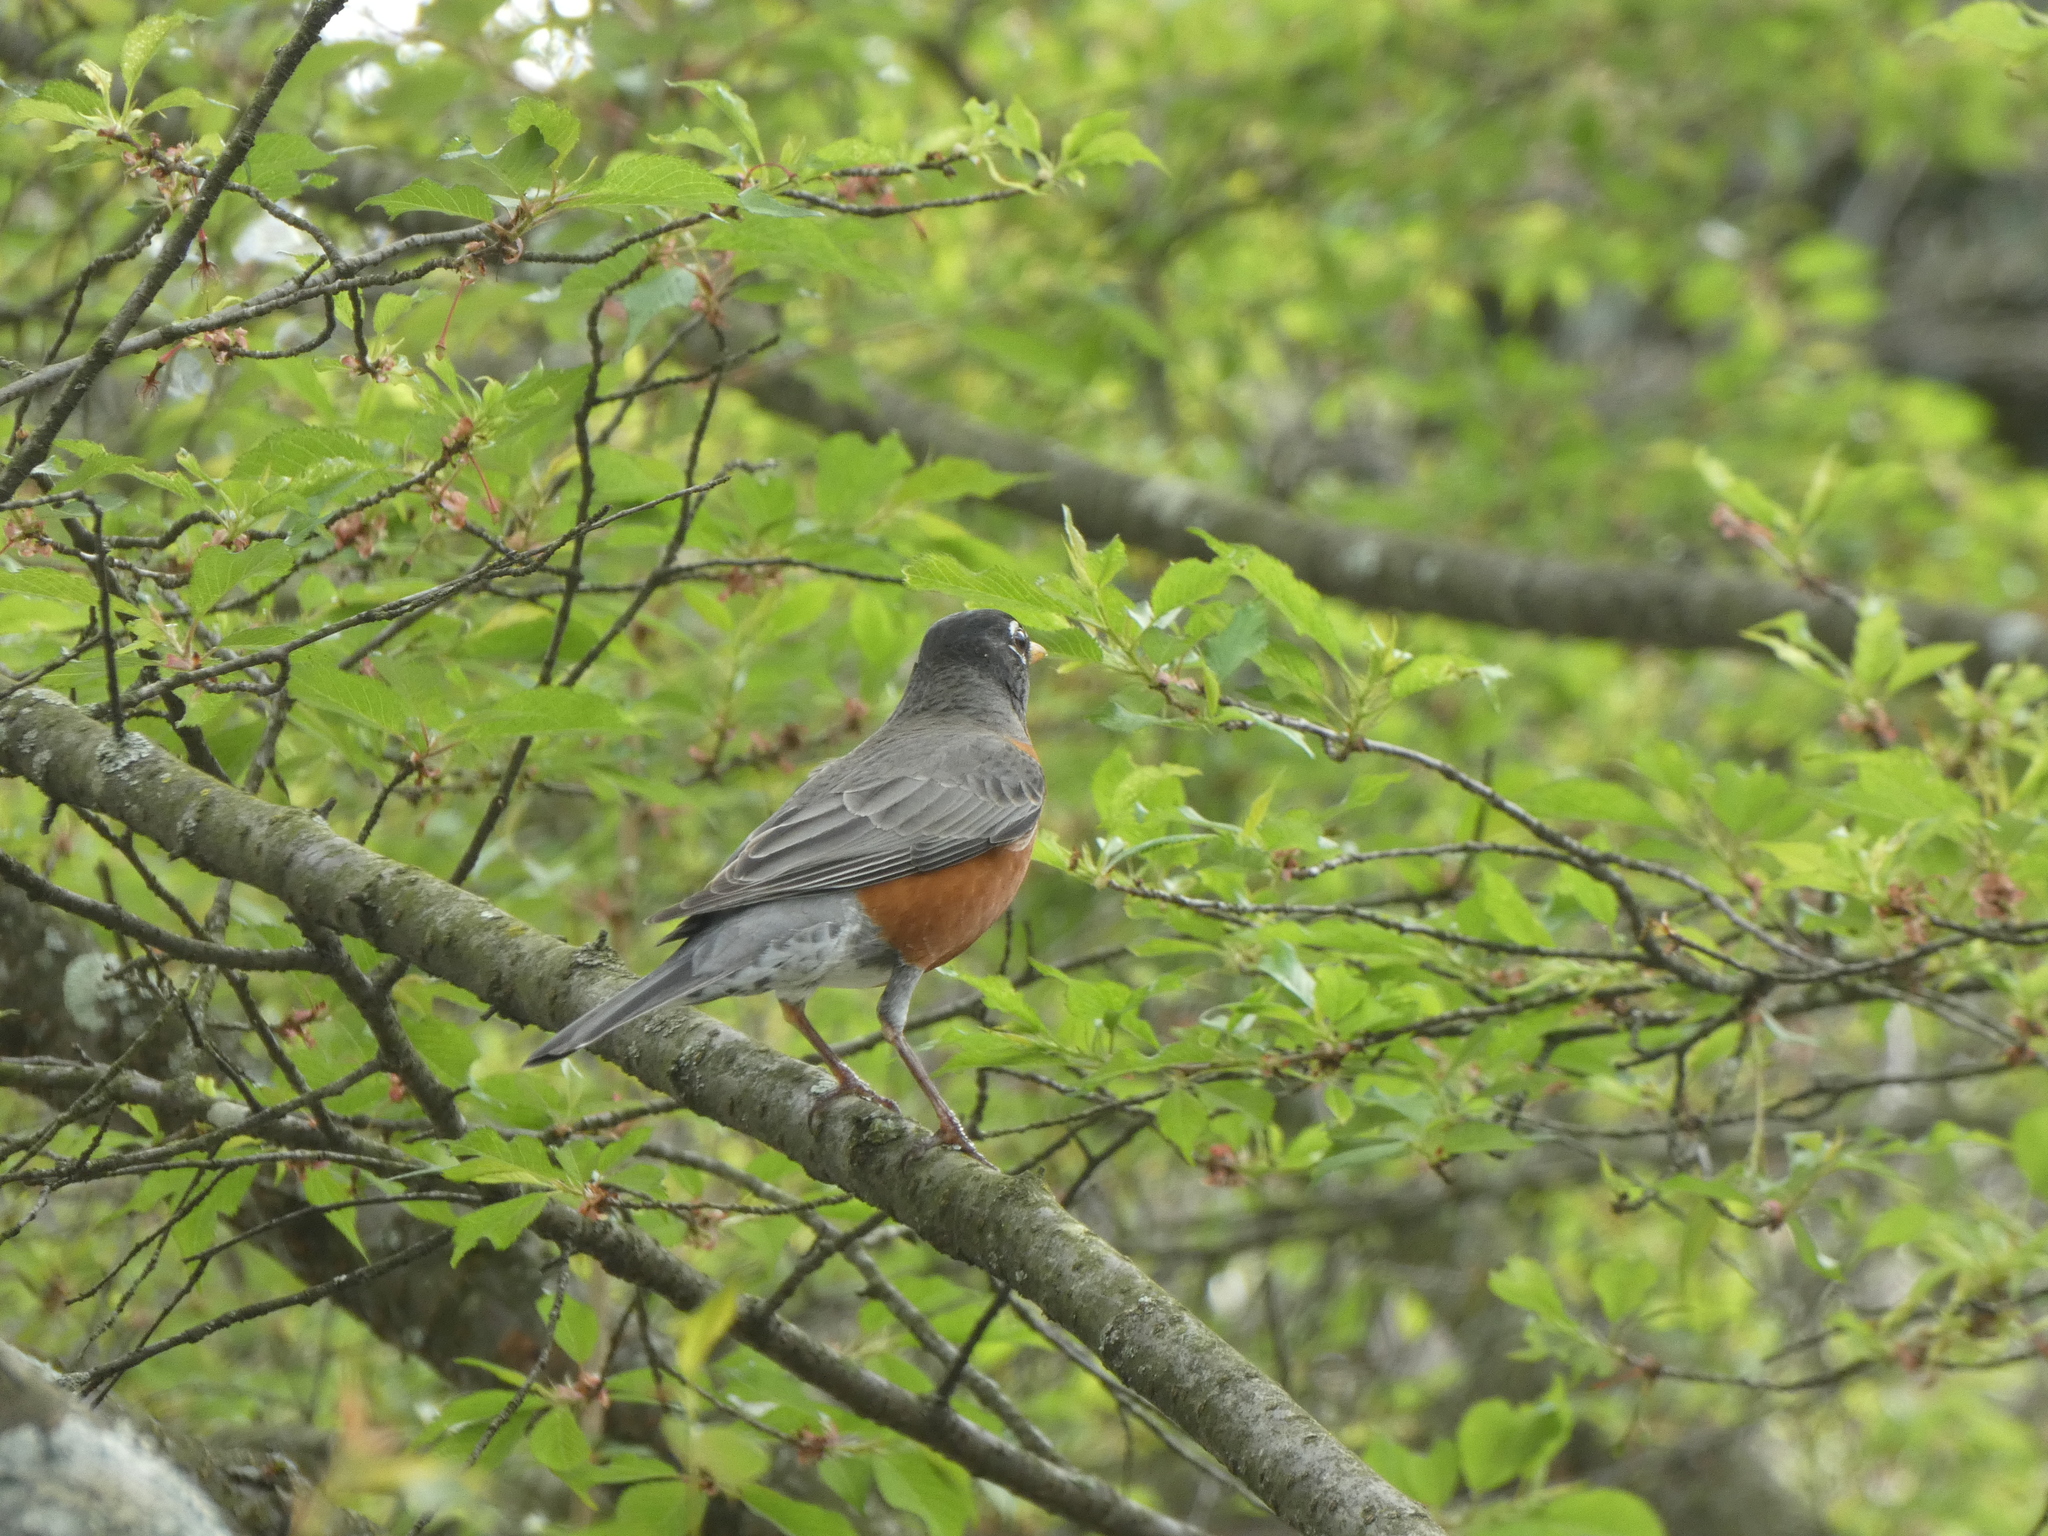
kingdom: Animalia
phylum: Chordata
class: Aves
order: Passeriformes
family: Turdidae
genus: Turdus
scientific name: Turdus migratorius
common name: American robin
